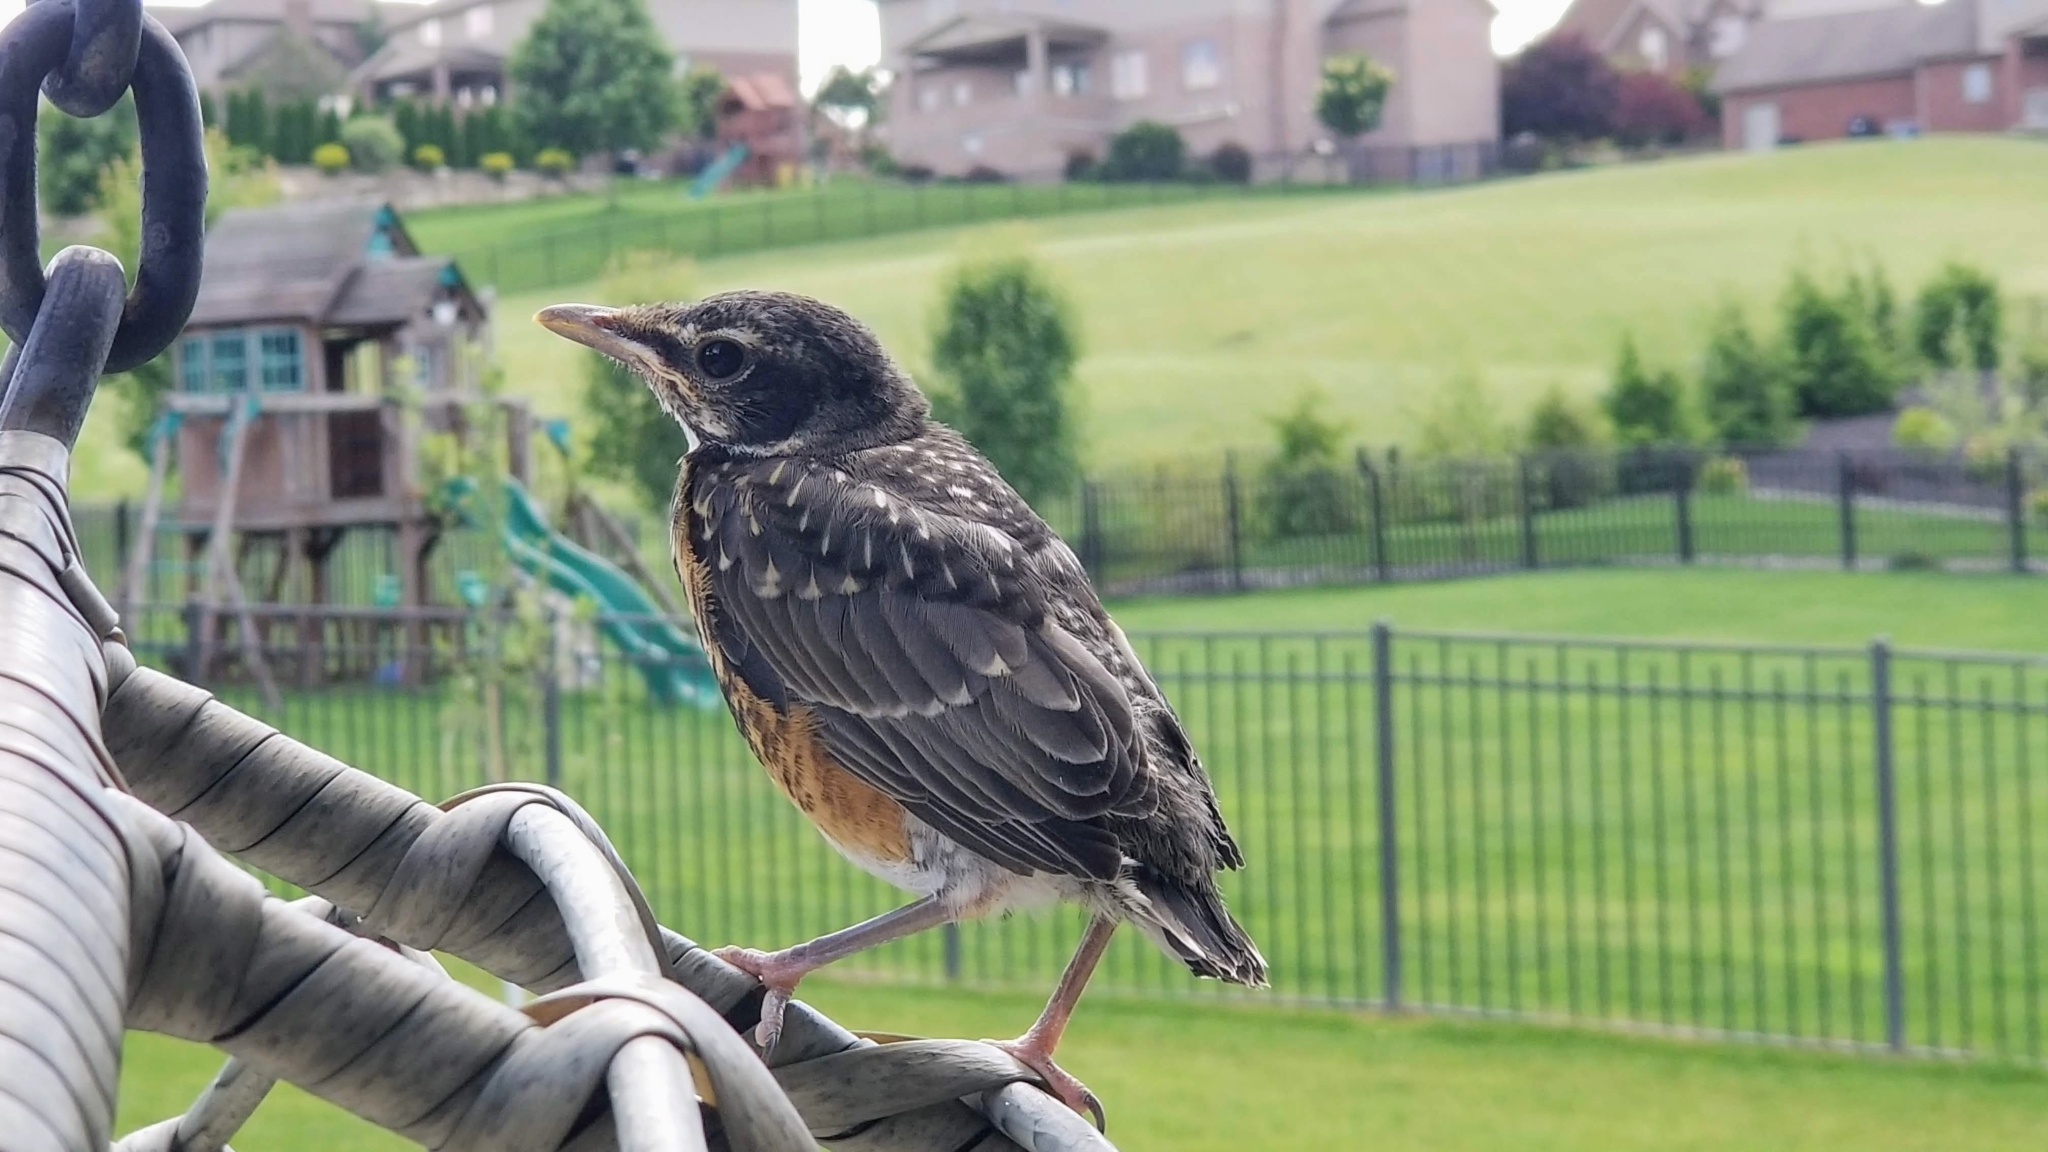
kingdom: Animalia
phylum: Chordata
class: Aves
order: Passeriformes
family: Turdidae
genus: Turdus
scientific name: Turdus migratorius
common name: American robin
